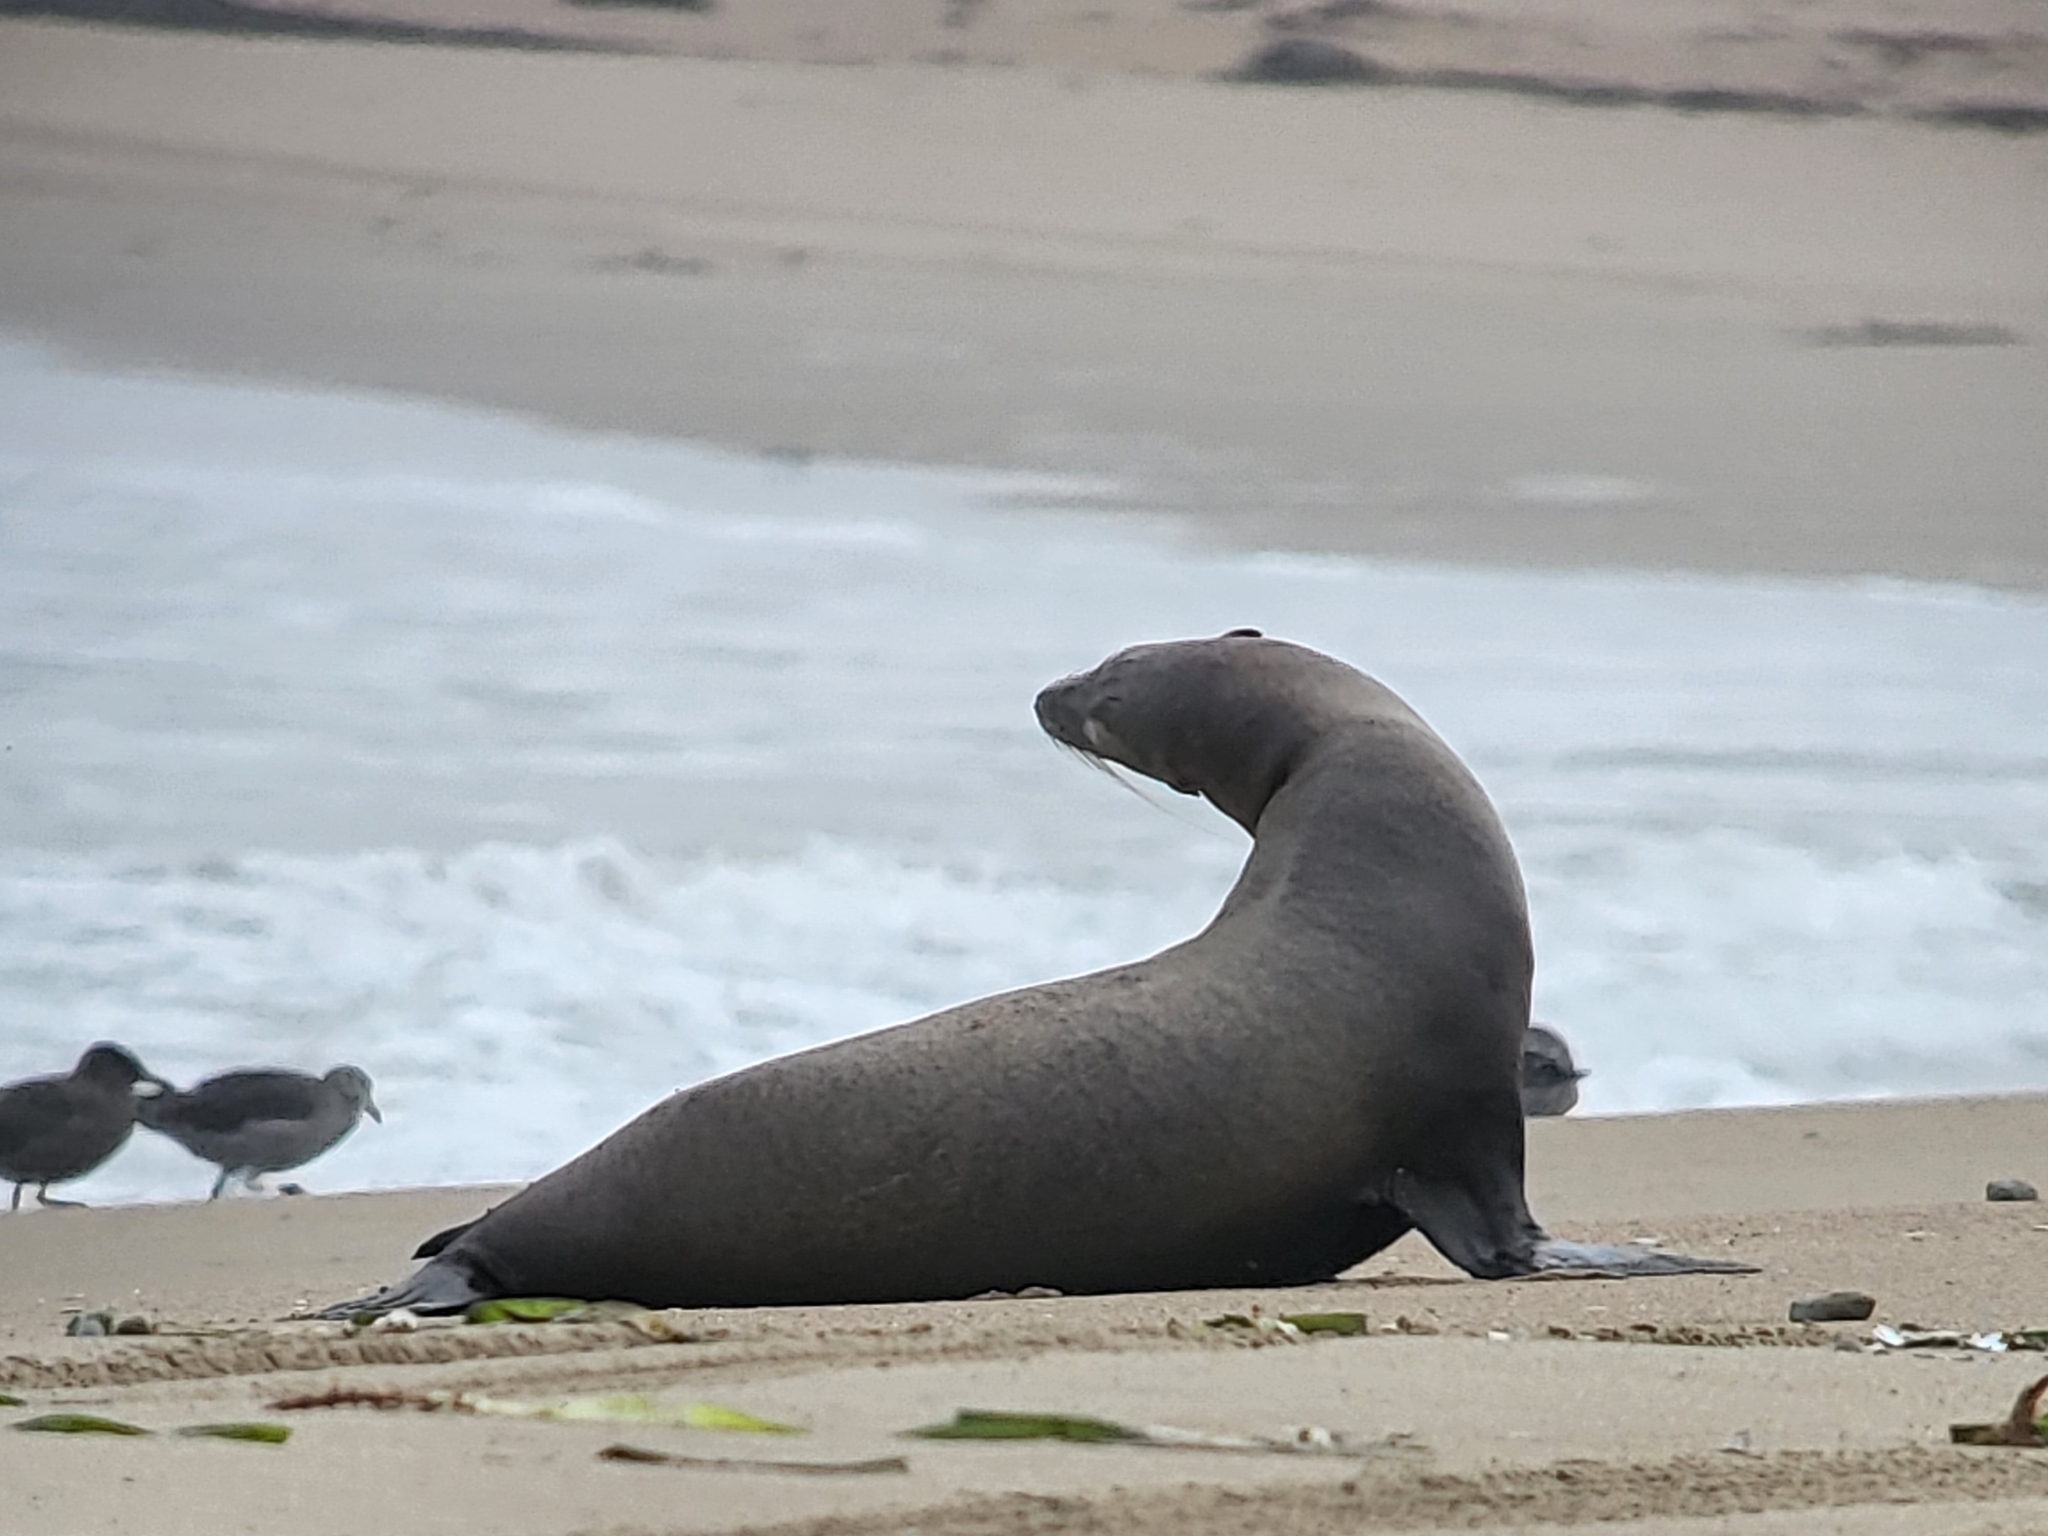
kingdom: Animalia
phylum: Chordata
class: Mammalia
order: Carnivora
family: Otariidae
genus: Zalophus
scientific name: Zalophus californianus
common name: California sea lion
